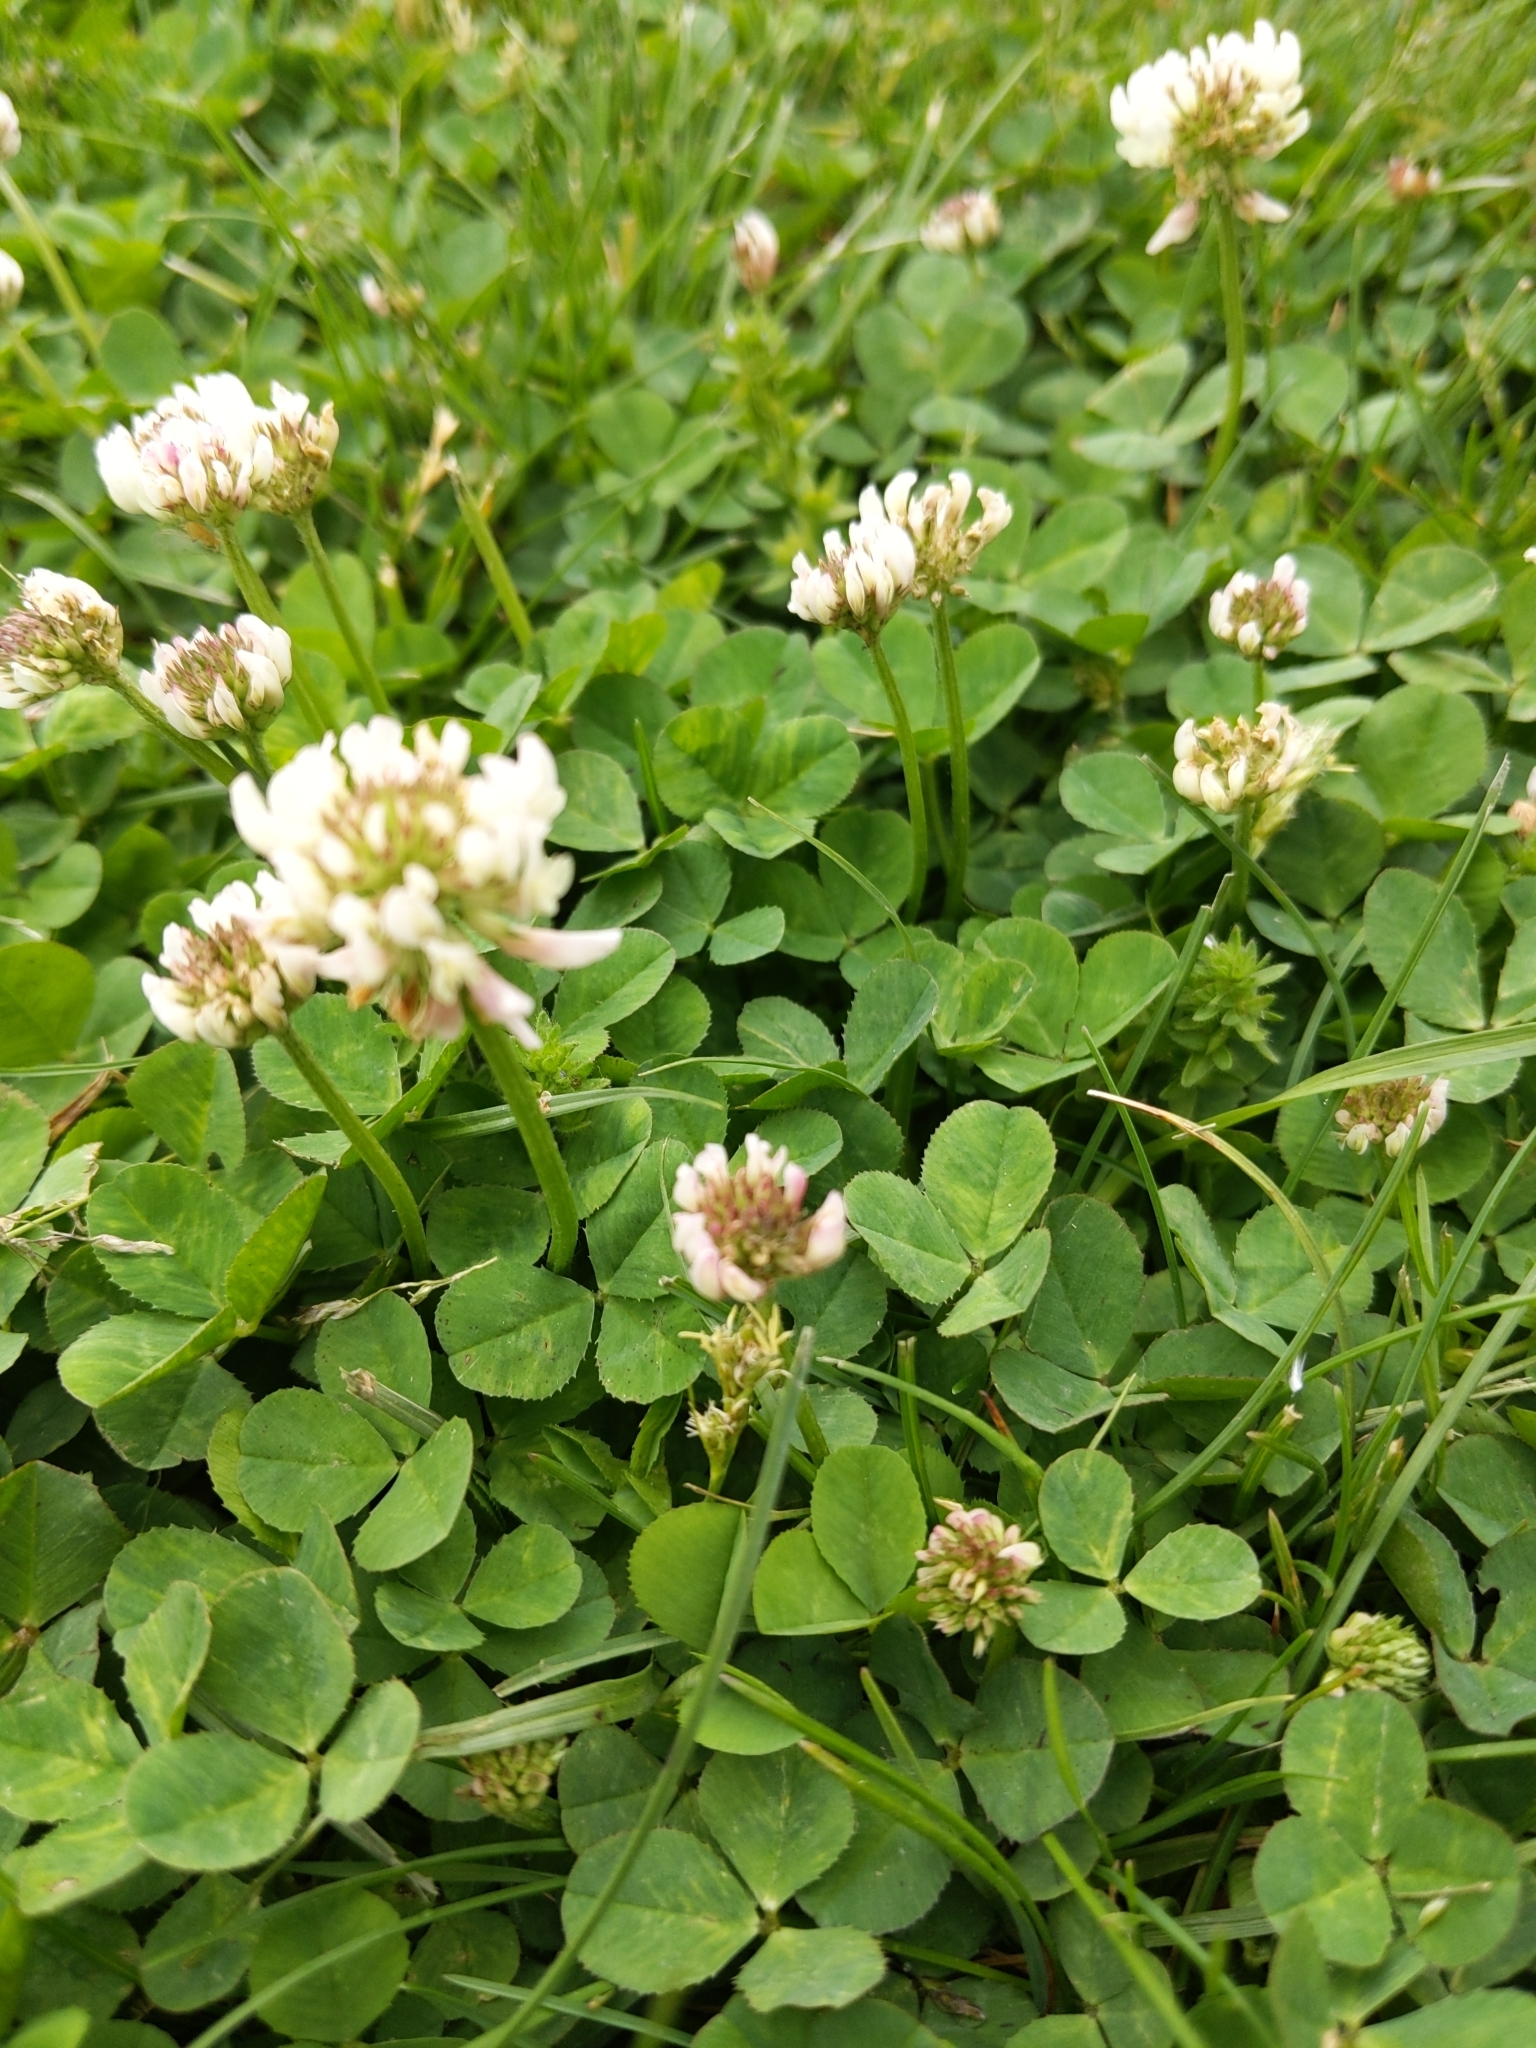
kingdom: Plantae
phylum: Tracheophyta
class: Magnoliopsida
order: Fabales
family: Fabaceae
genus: Trifolium
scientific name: Trifolium repens
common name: White clover
